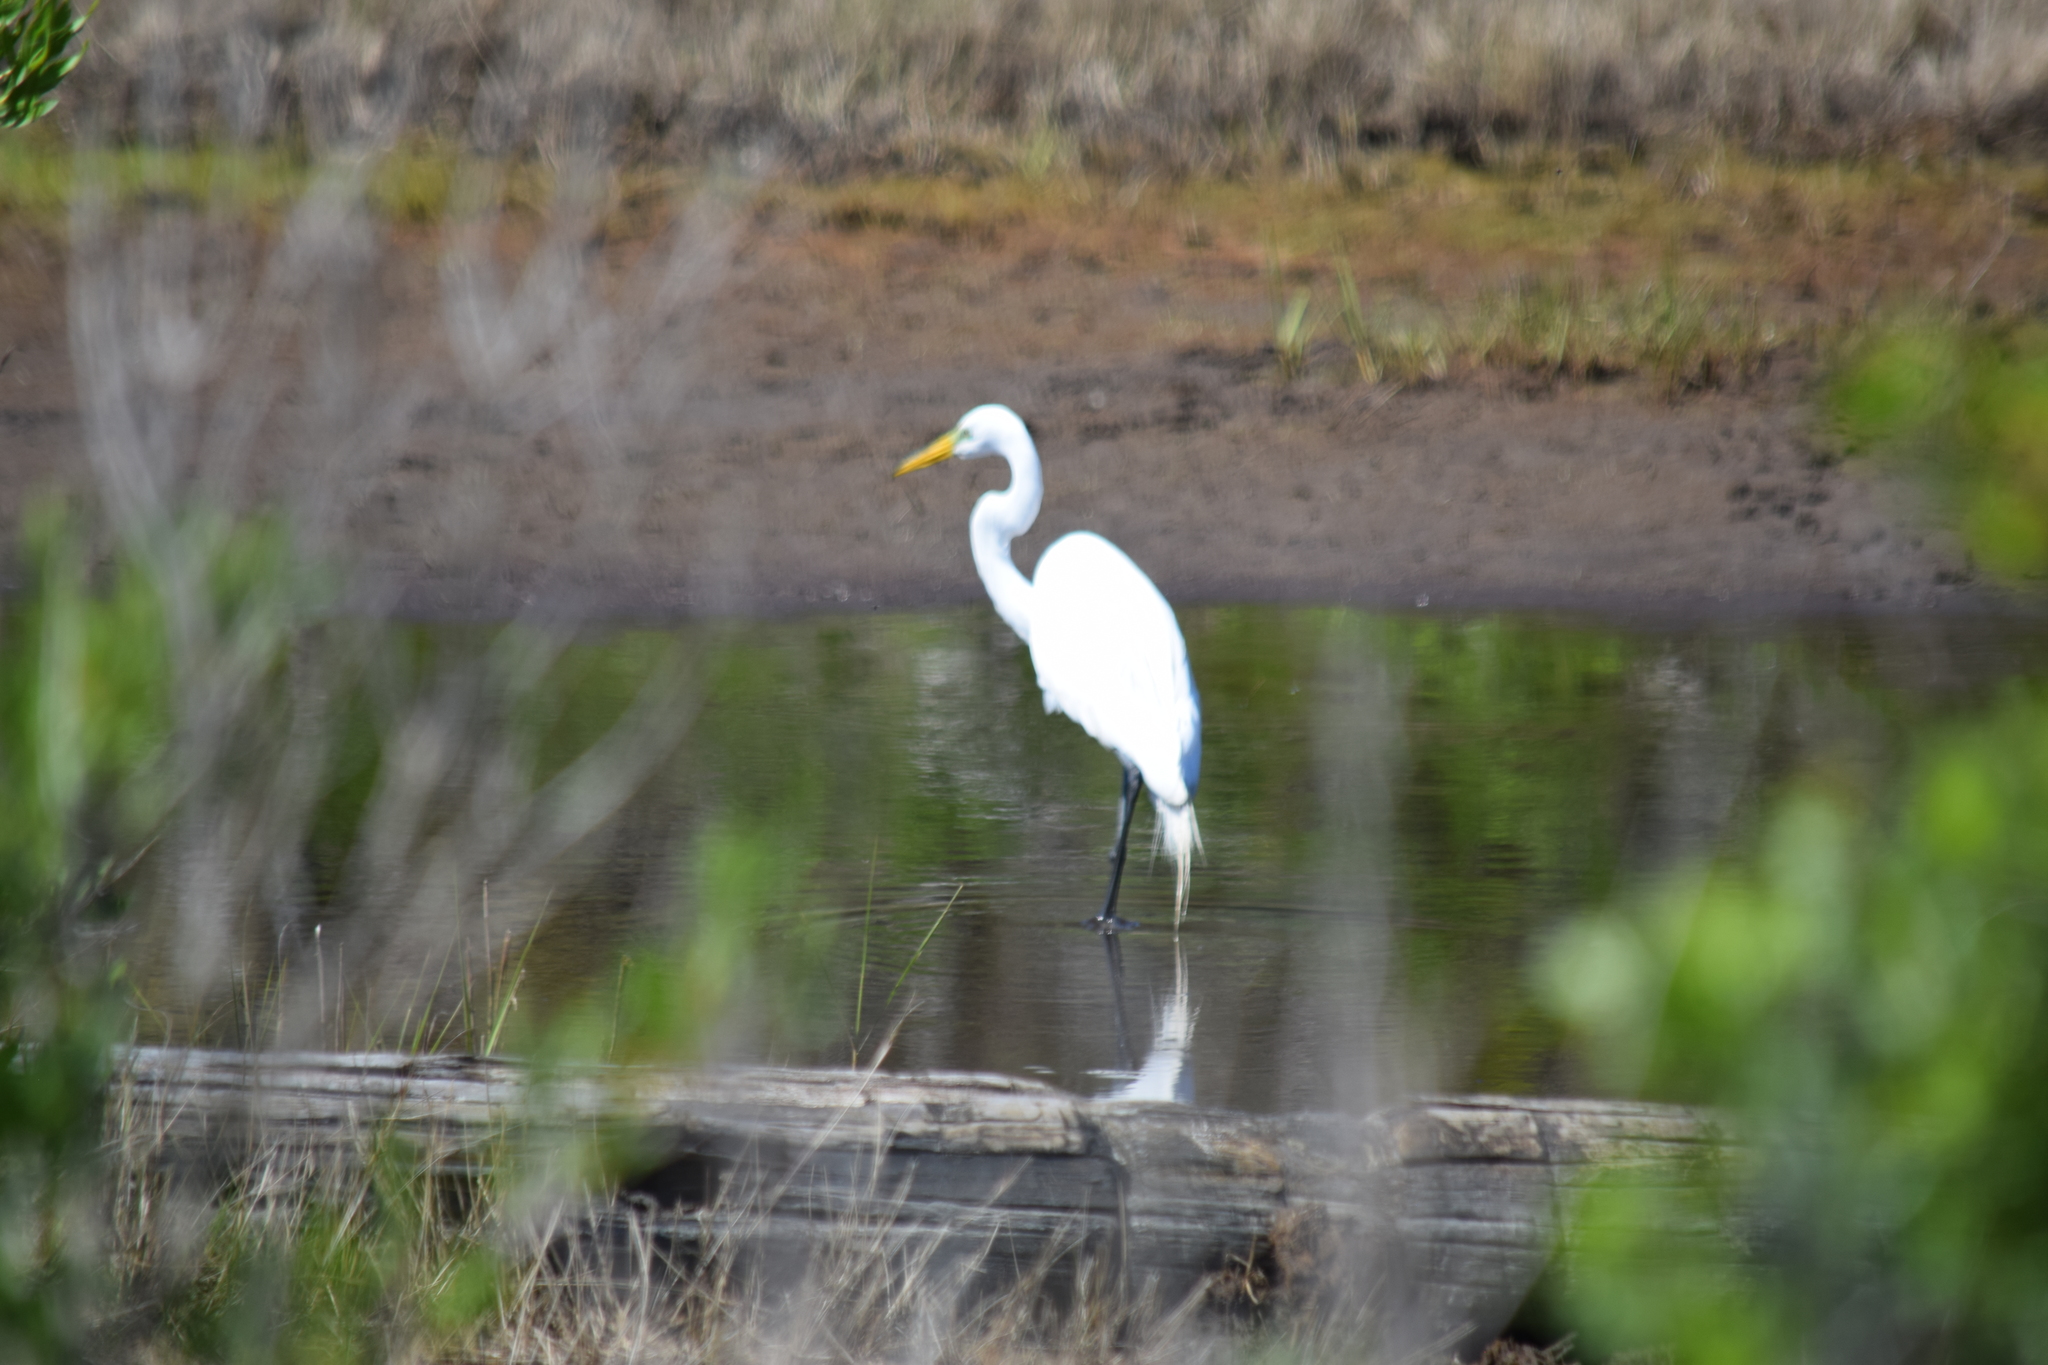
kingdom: Animalia
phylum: Chordata
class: Aves
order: Pelecaniformes
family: Ardeidae
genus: Ardea
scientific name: Ardea alba
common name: Great egret
